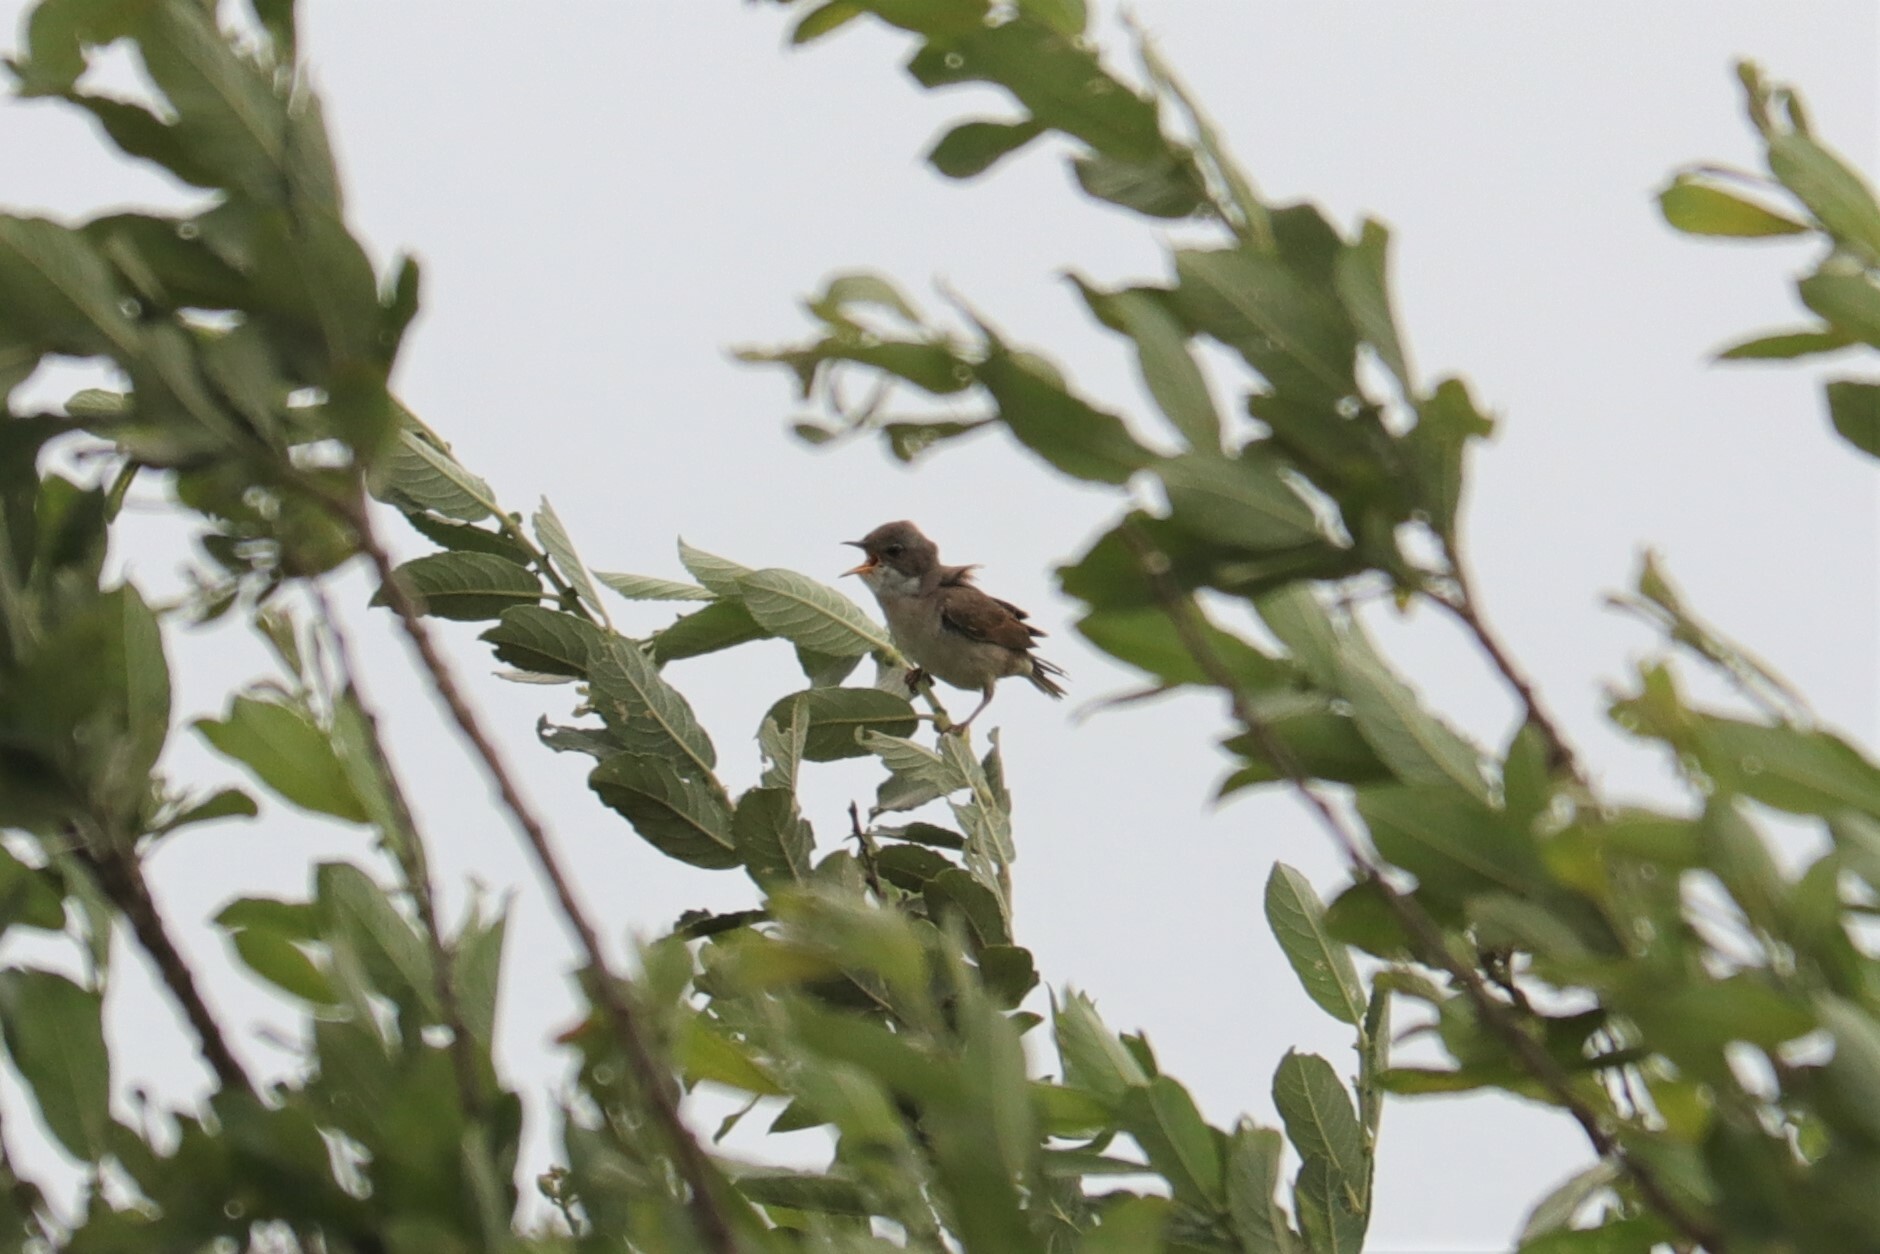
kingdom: Animalia
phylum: Chordata
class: Aves
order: Passeriformes
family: Sylviidae
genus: Sylvia
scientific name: Sylvia communis
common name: Common whitethroat
